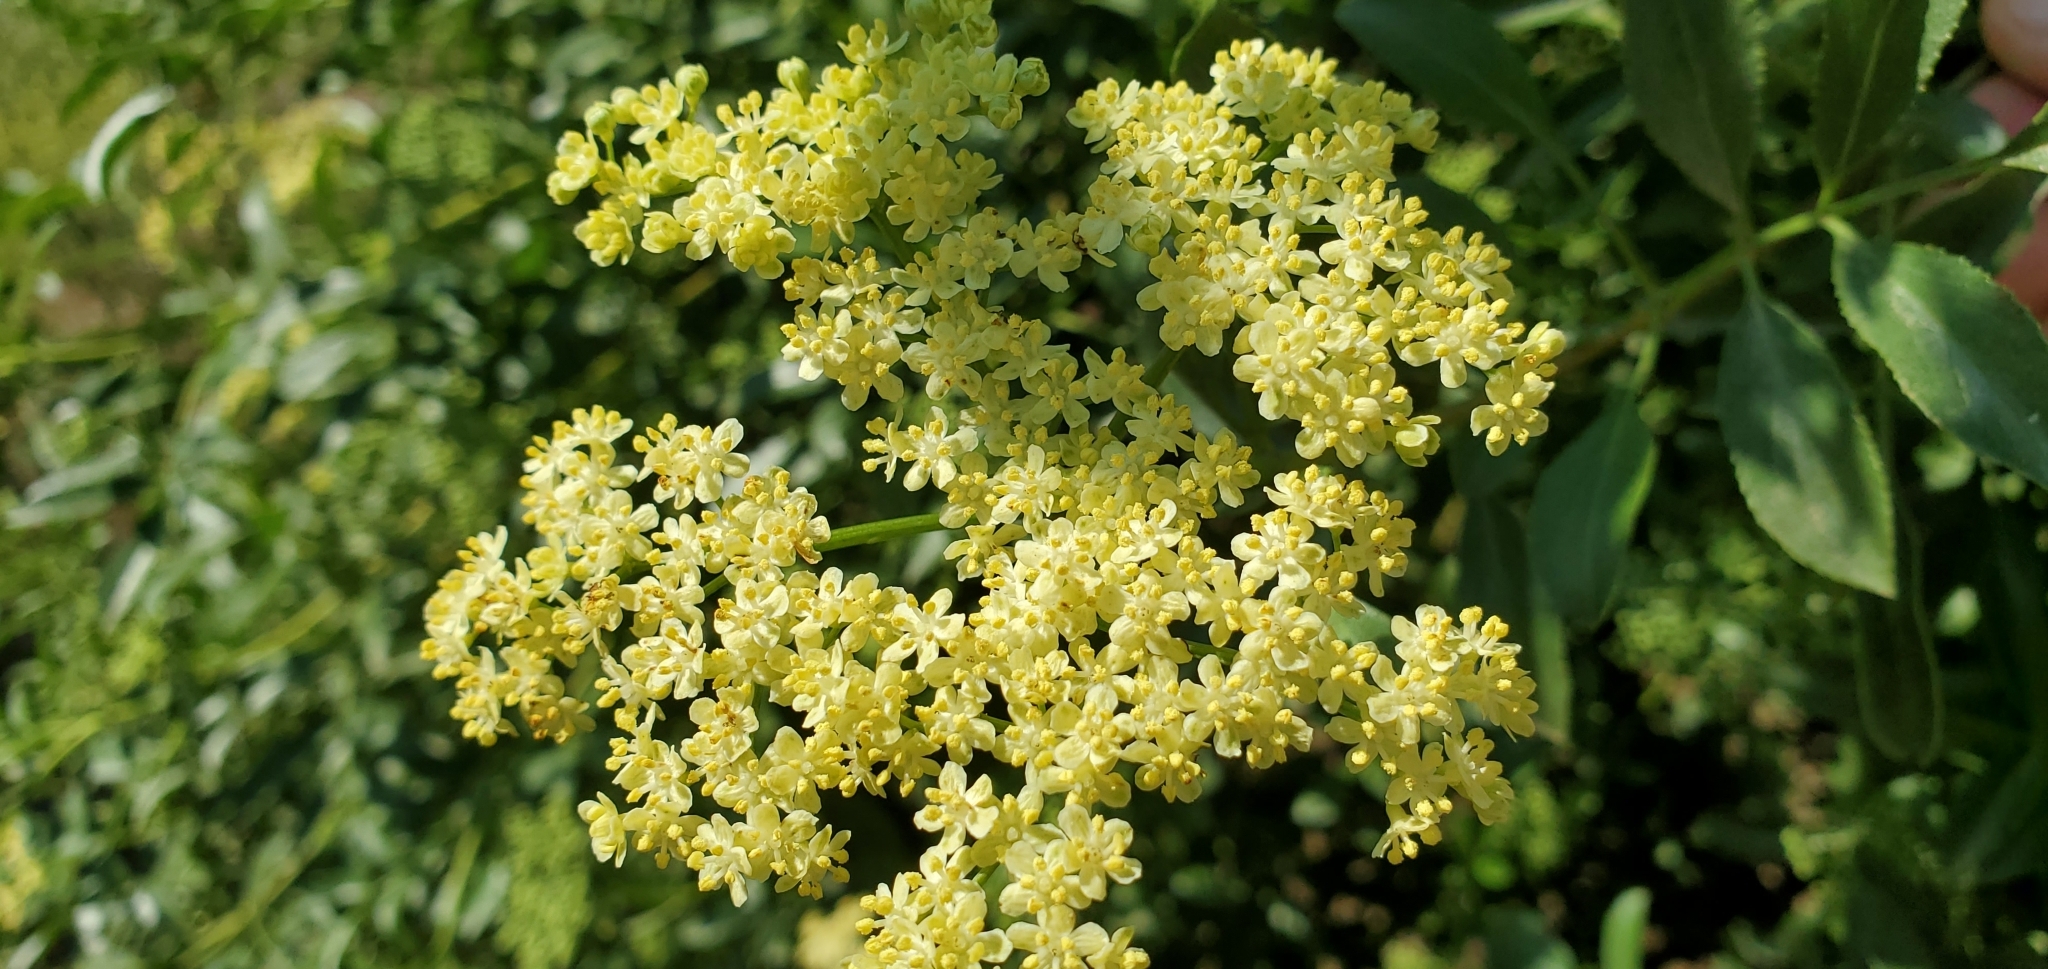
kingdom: Plantae
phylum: Tracheophyta
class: Magnoliopsida
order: Dipsacales
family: Viburnaceae
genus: Sambucus
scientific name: Sambucus cerulea
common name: Blue elder
